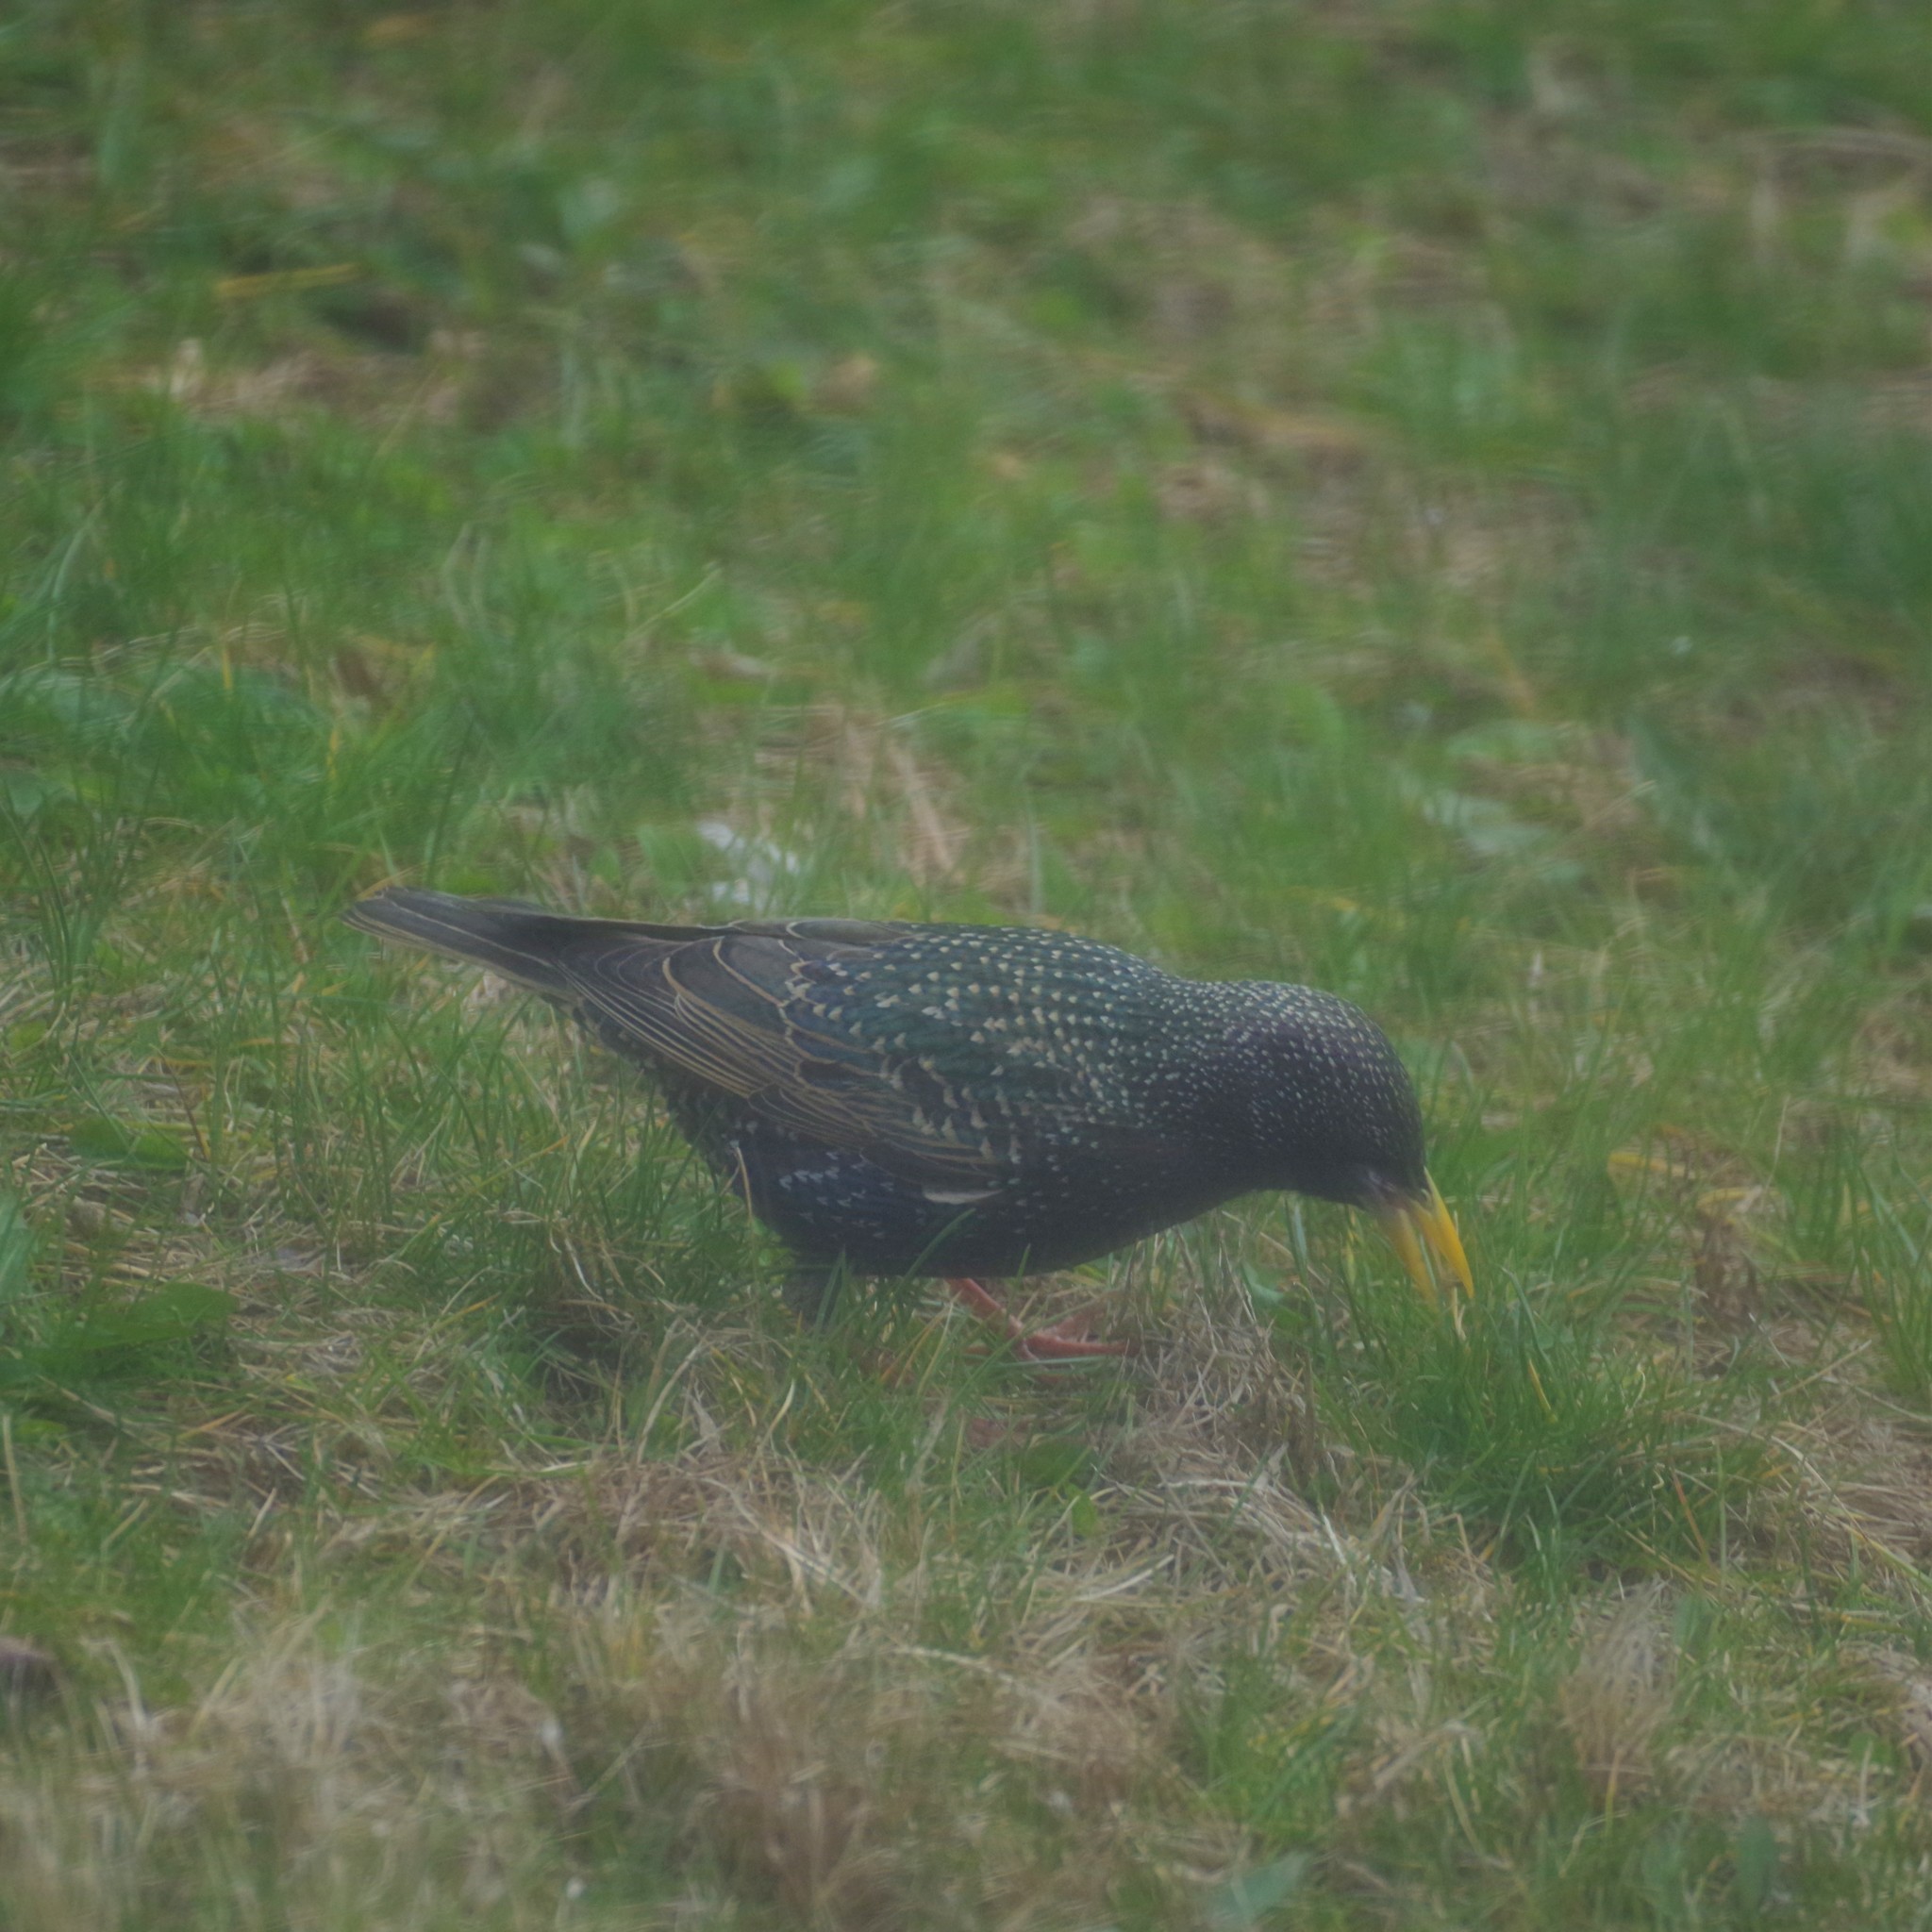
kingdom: Animalia
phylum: Chordata
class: Aves
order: Passeriformes
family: Sturnidae
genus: Sturnus
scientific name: Sturnus vulgaris
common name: Common starling
